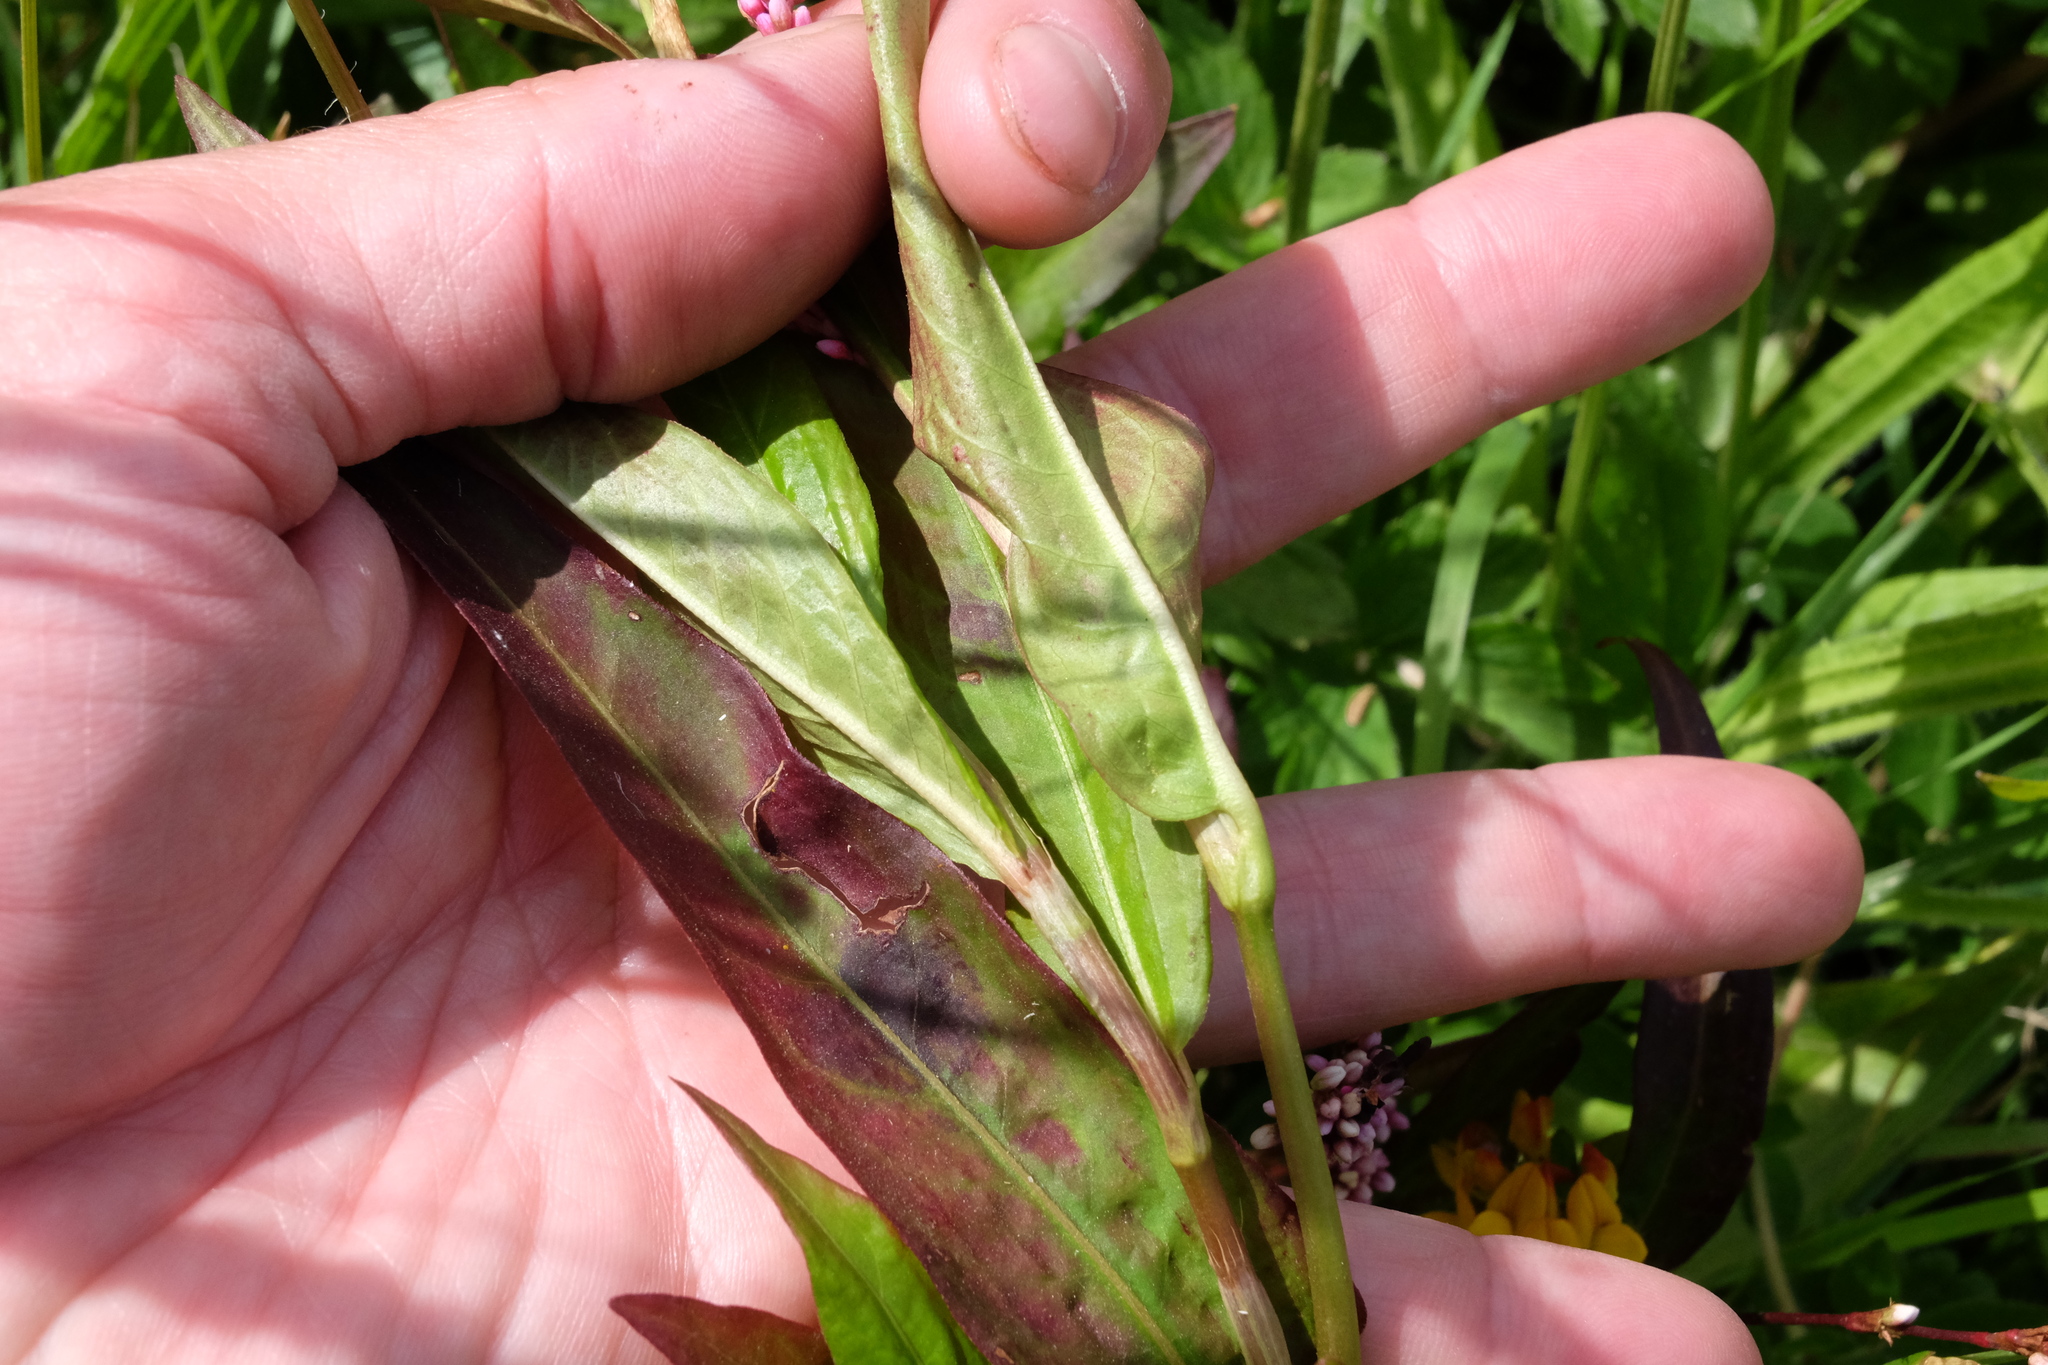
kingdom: Plantae
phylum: Tracheophyta
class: Magnoliopsida
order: Caryophyllales
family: Polygonaceae
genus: Persicaria
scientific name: Persicaria decipiens
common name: Willow-weed
